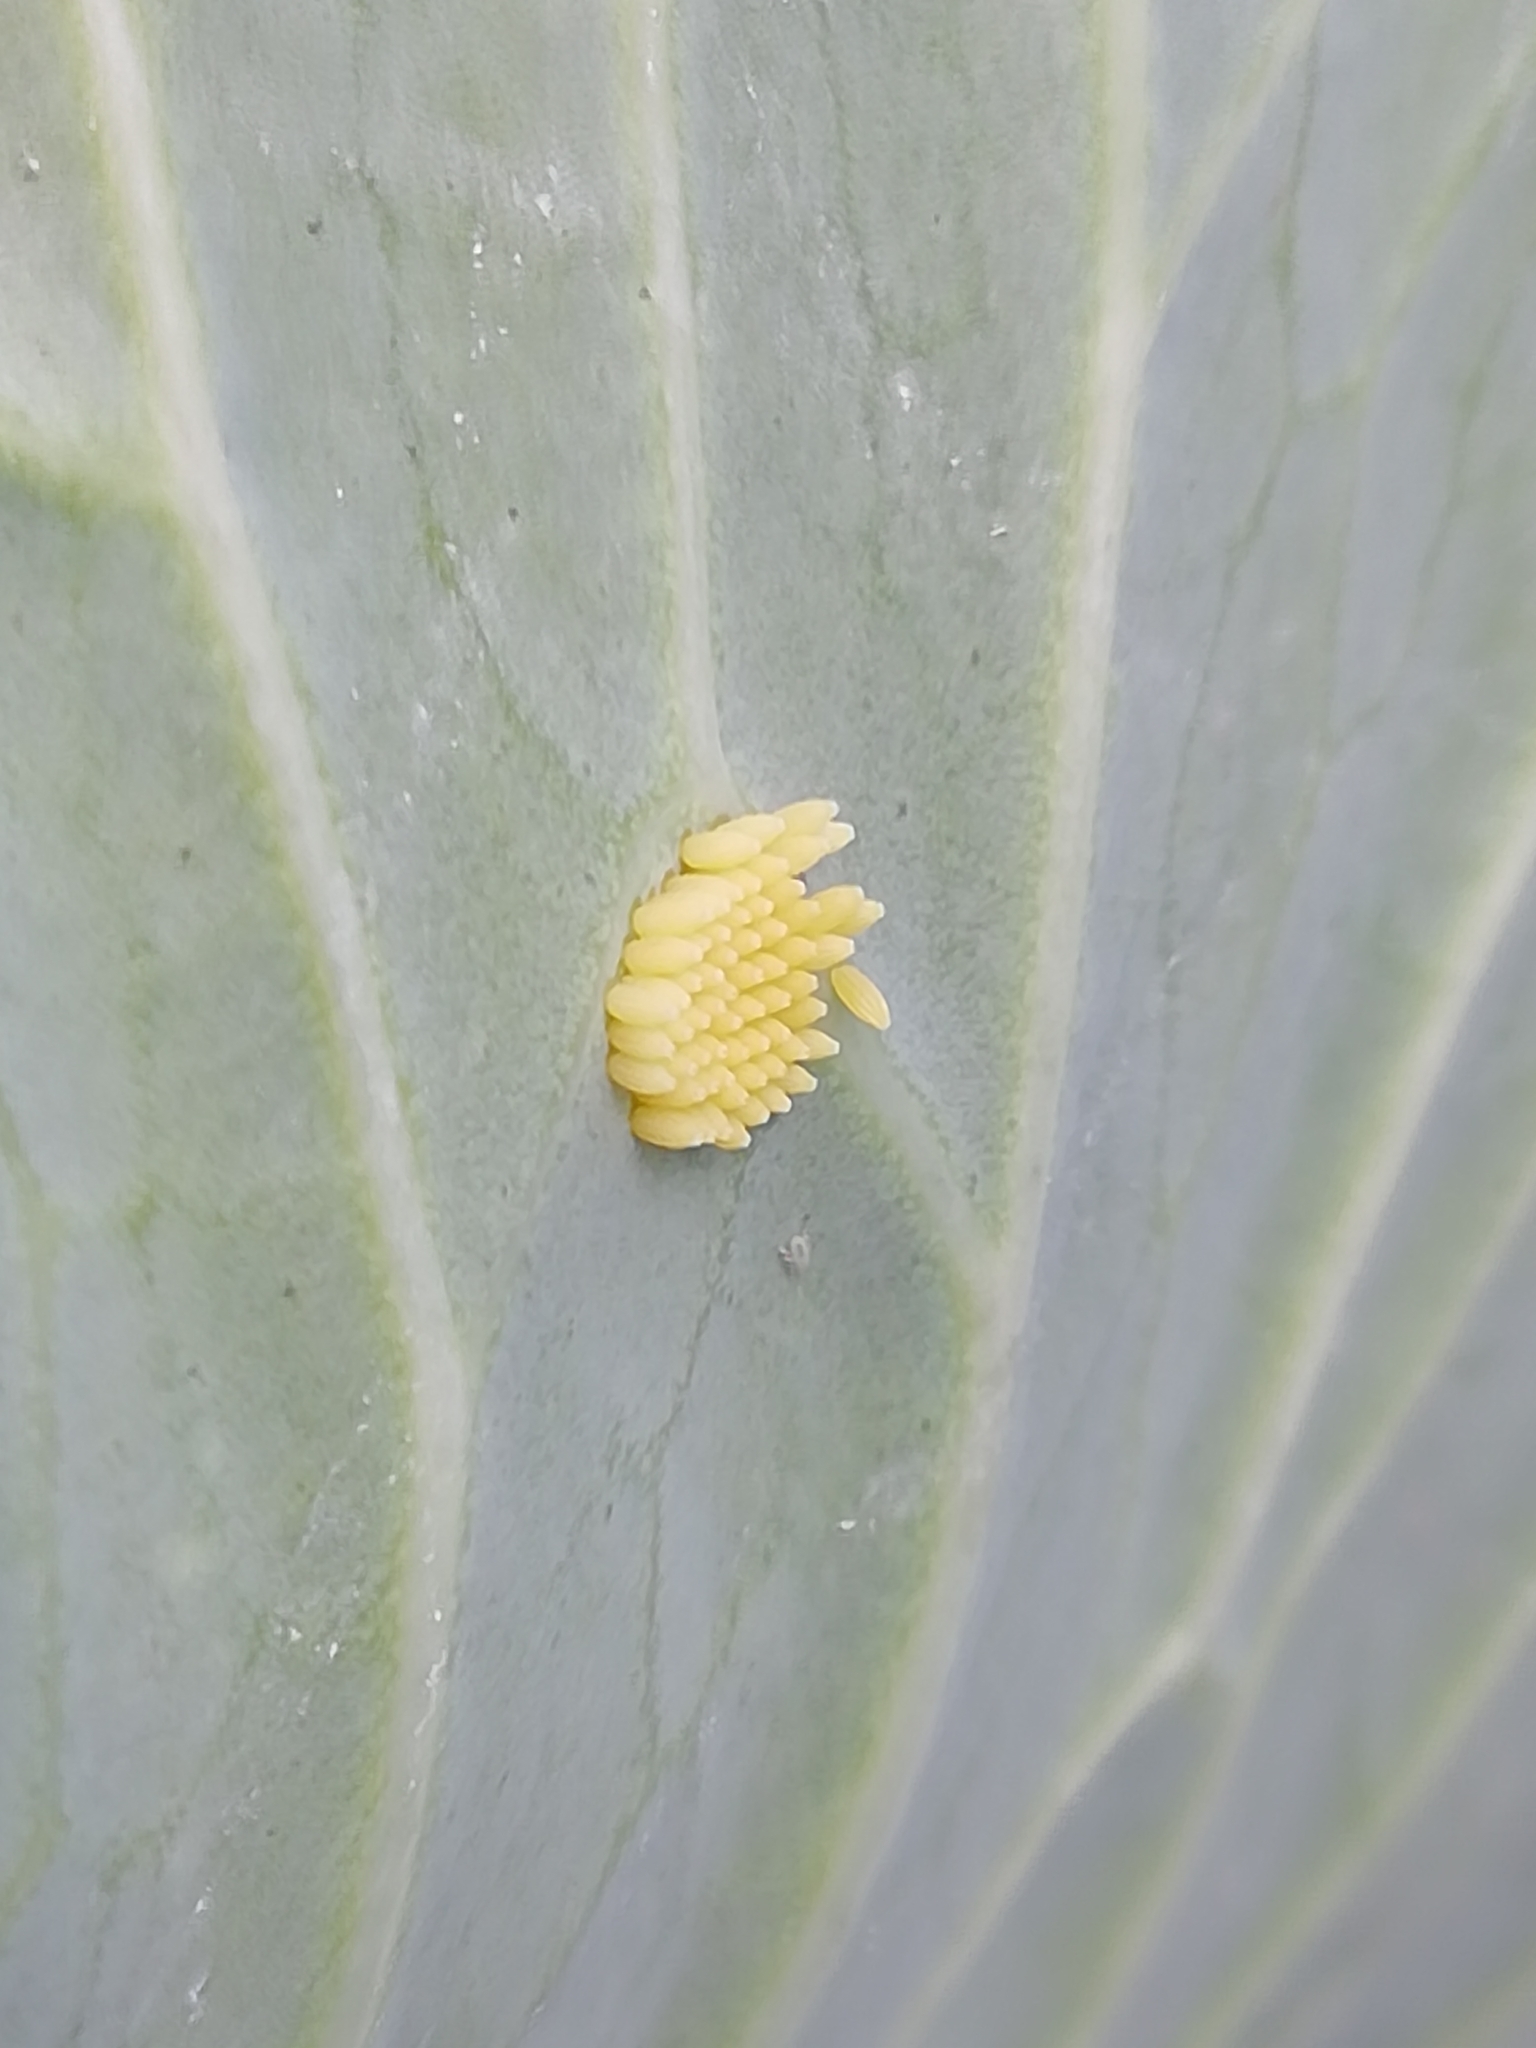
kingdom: Animalia
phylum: Arthropoda
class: Insecta
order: Lepidoptera
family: Pieridae
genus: Pieris
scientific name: Pieris brassicae
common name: Large white
